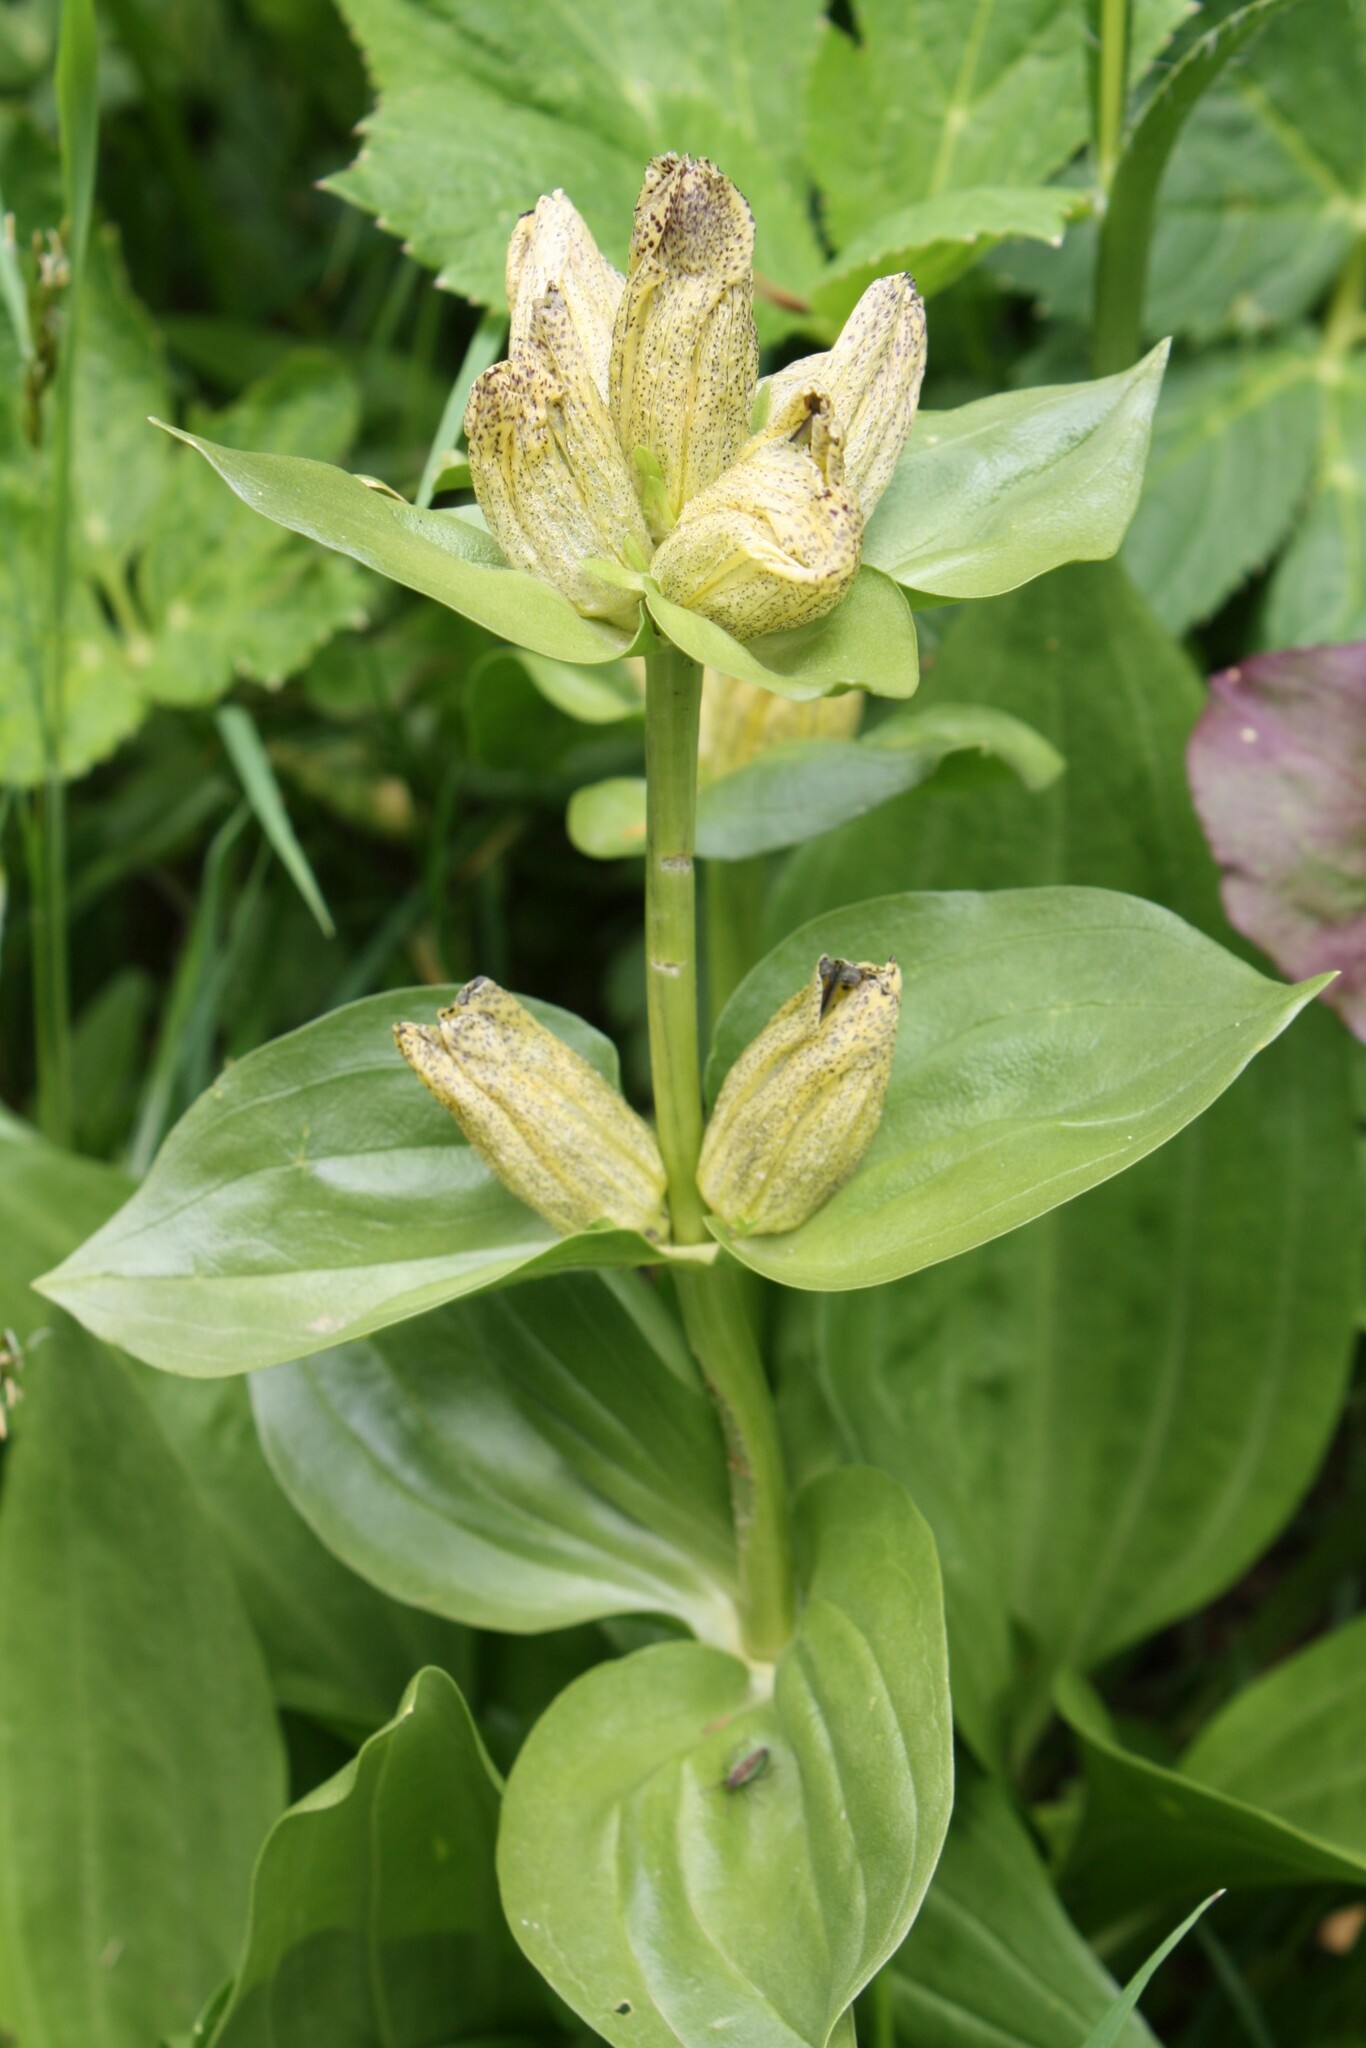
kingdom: Plantae
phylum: Tracheophyta
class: Magnoliopsida
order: Gentianales
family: Gentianaceae
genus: Gentiana
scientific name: Gentiana punctata
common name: Spotted gentian
